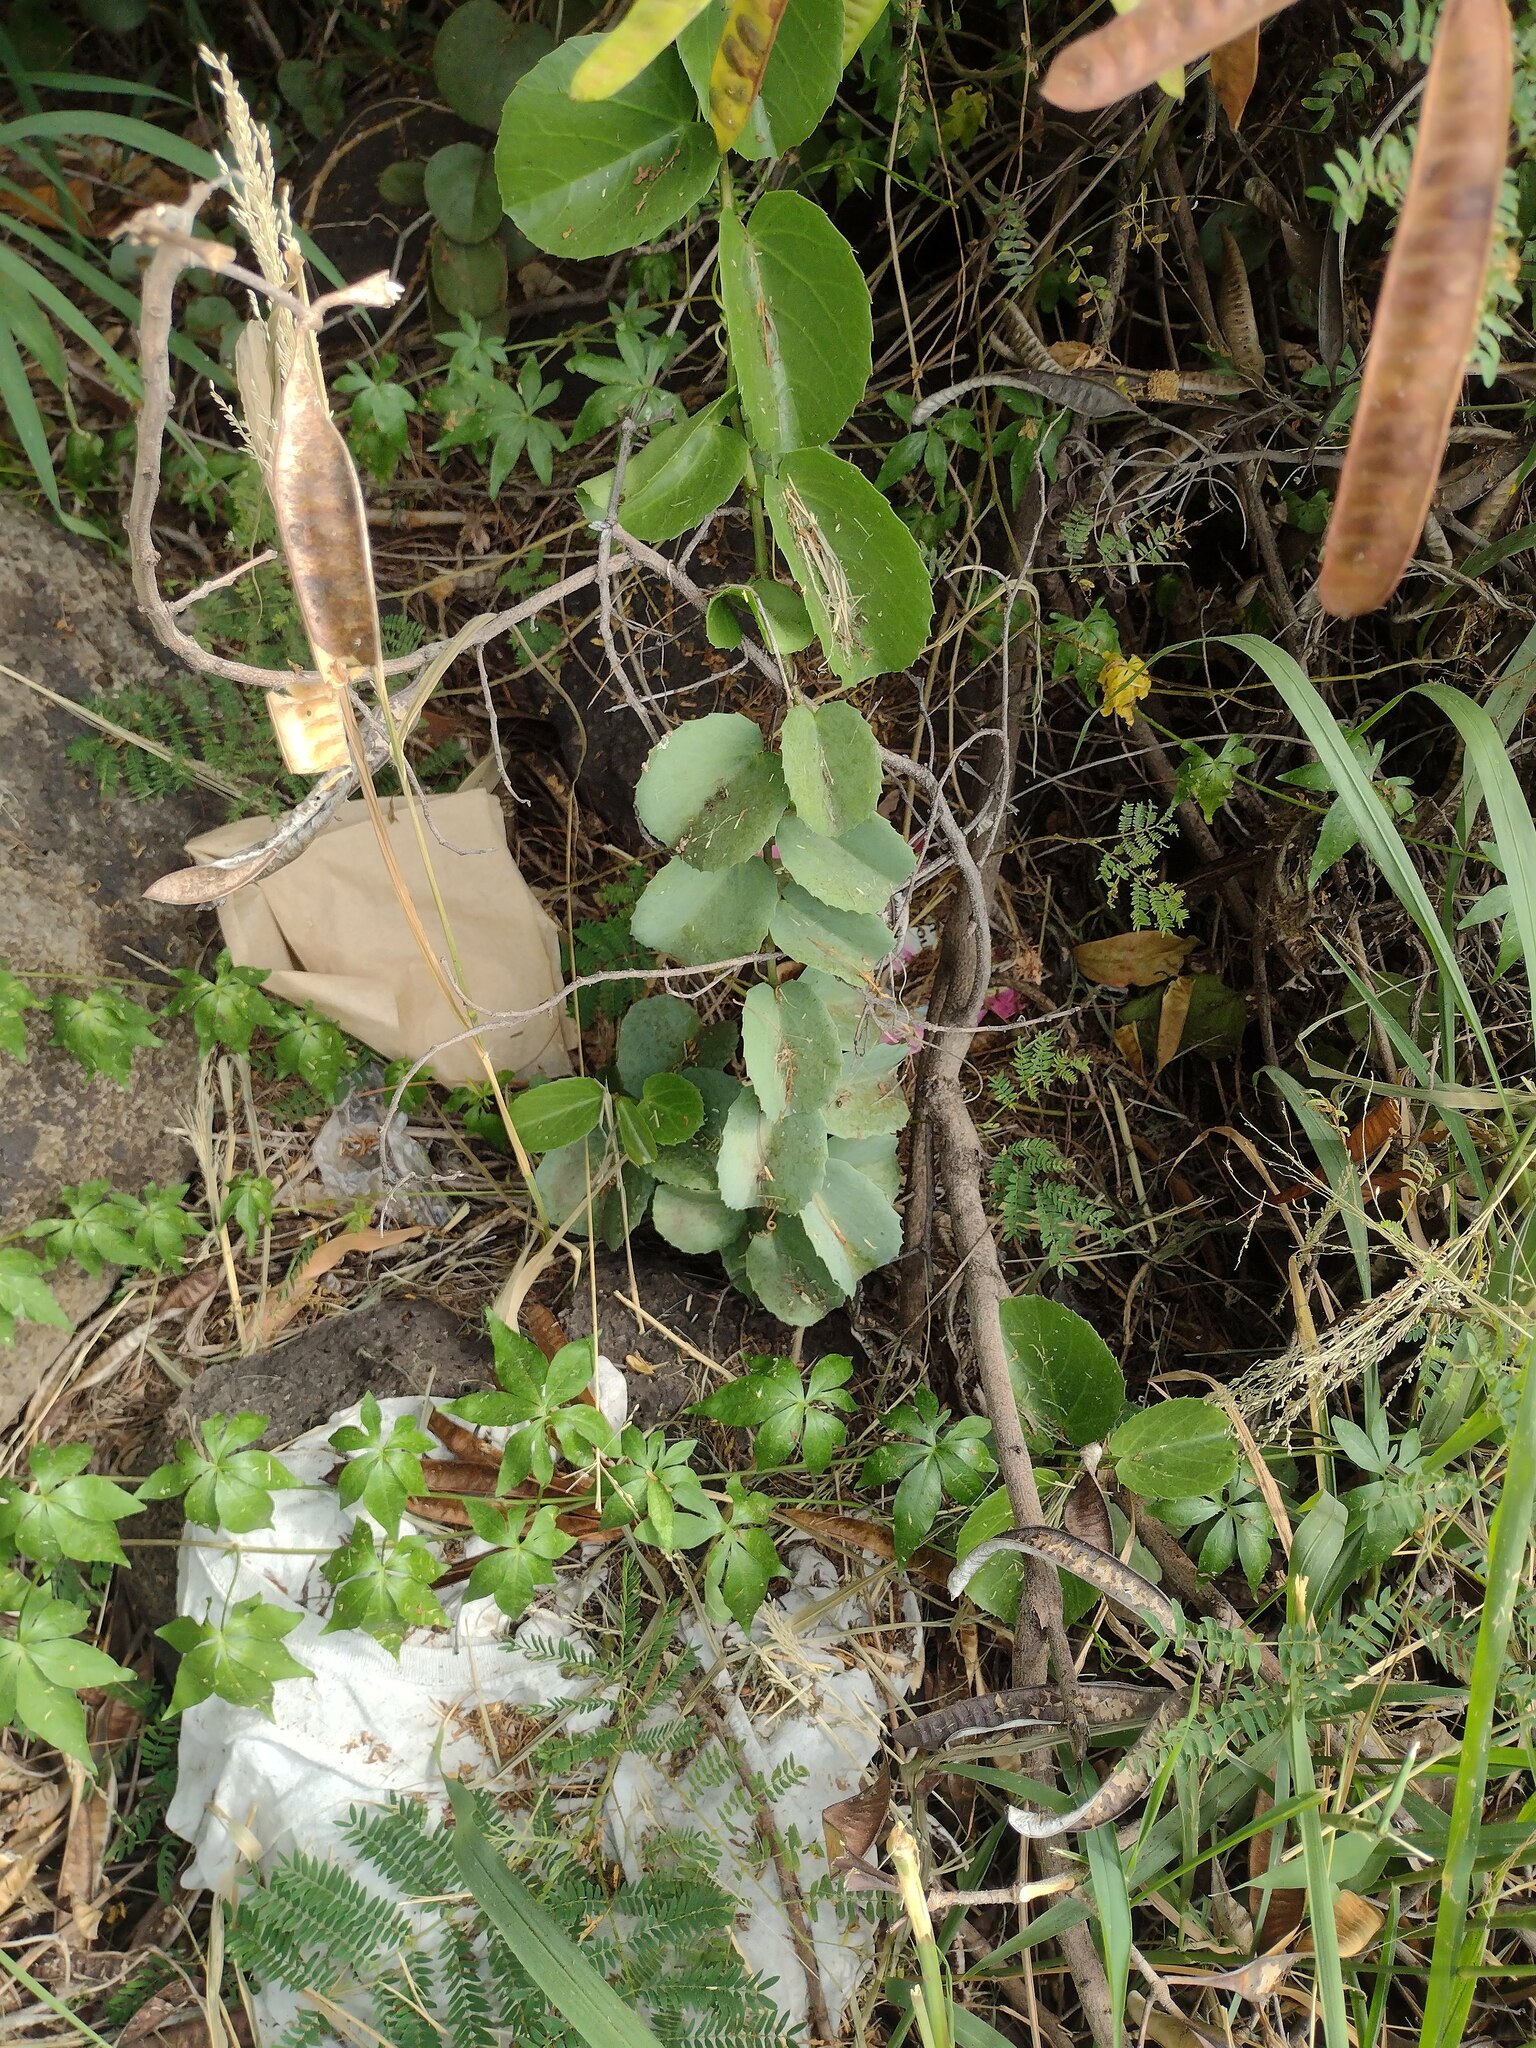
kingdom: Plantae
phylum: Tracheophyta
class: Magnoliopsida
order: Vitales
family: Vitaceae
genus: Cissus
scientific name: Cissus rotundifolia
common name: Arabian wax cissus
